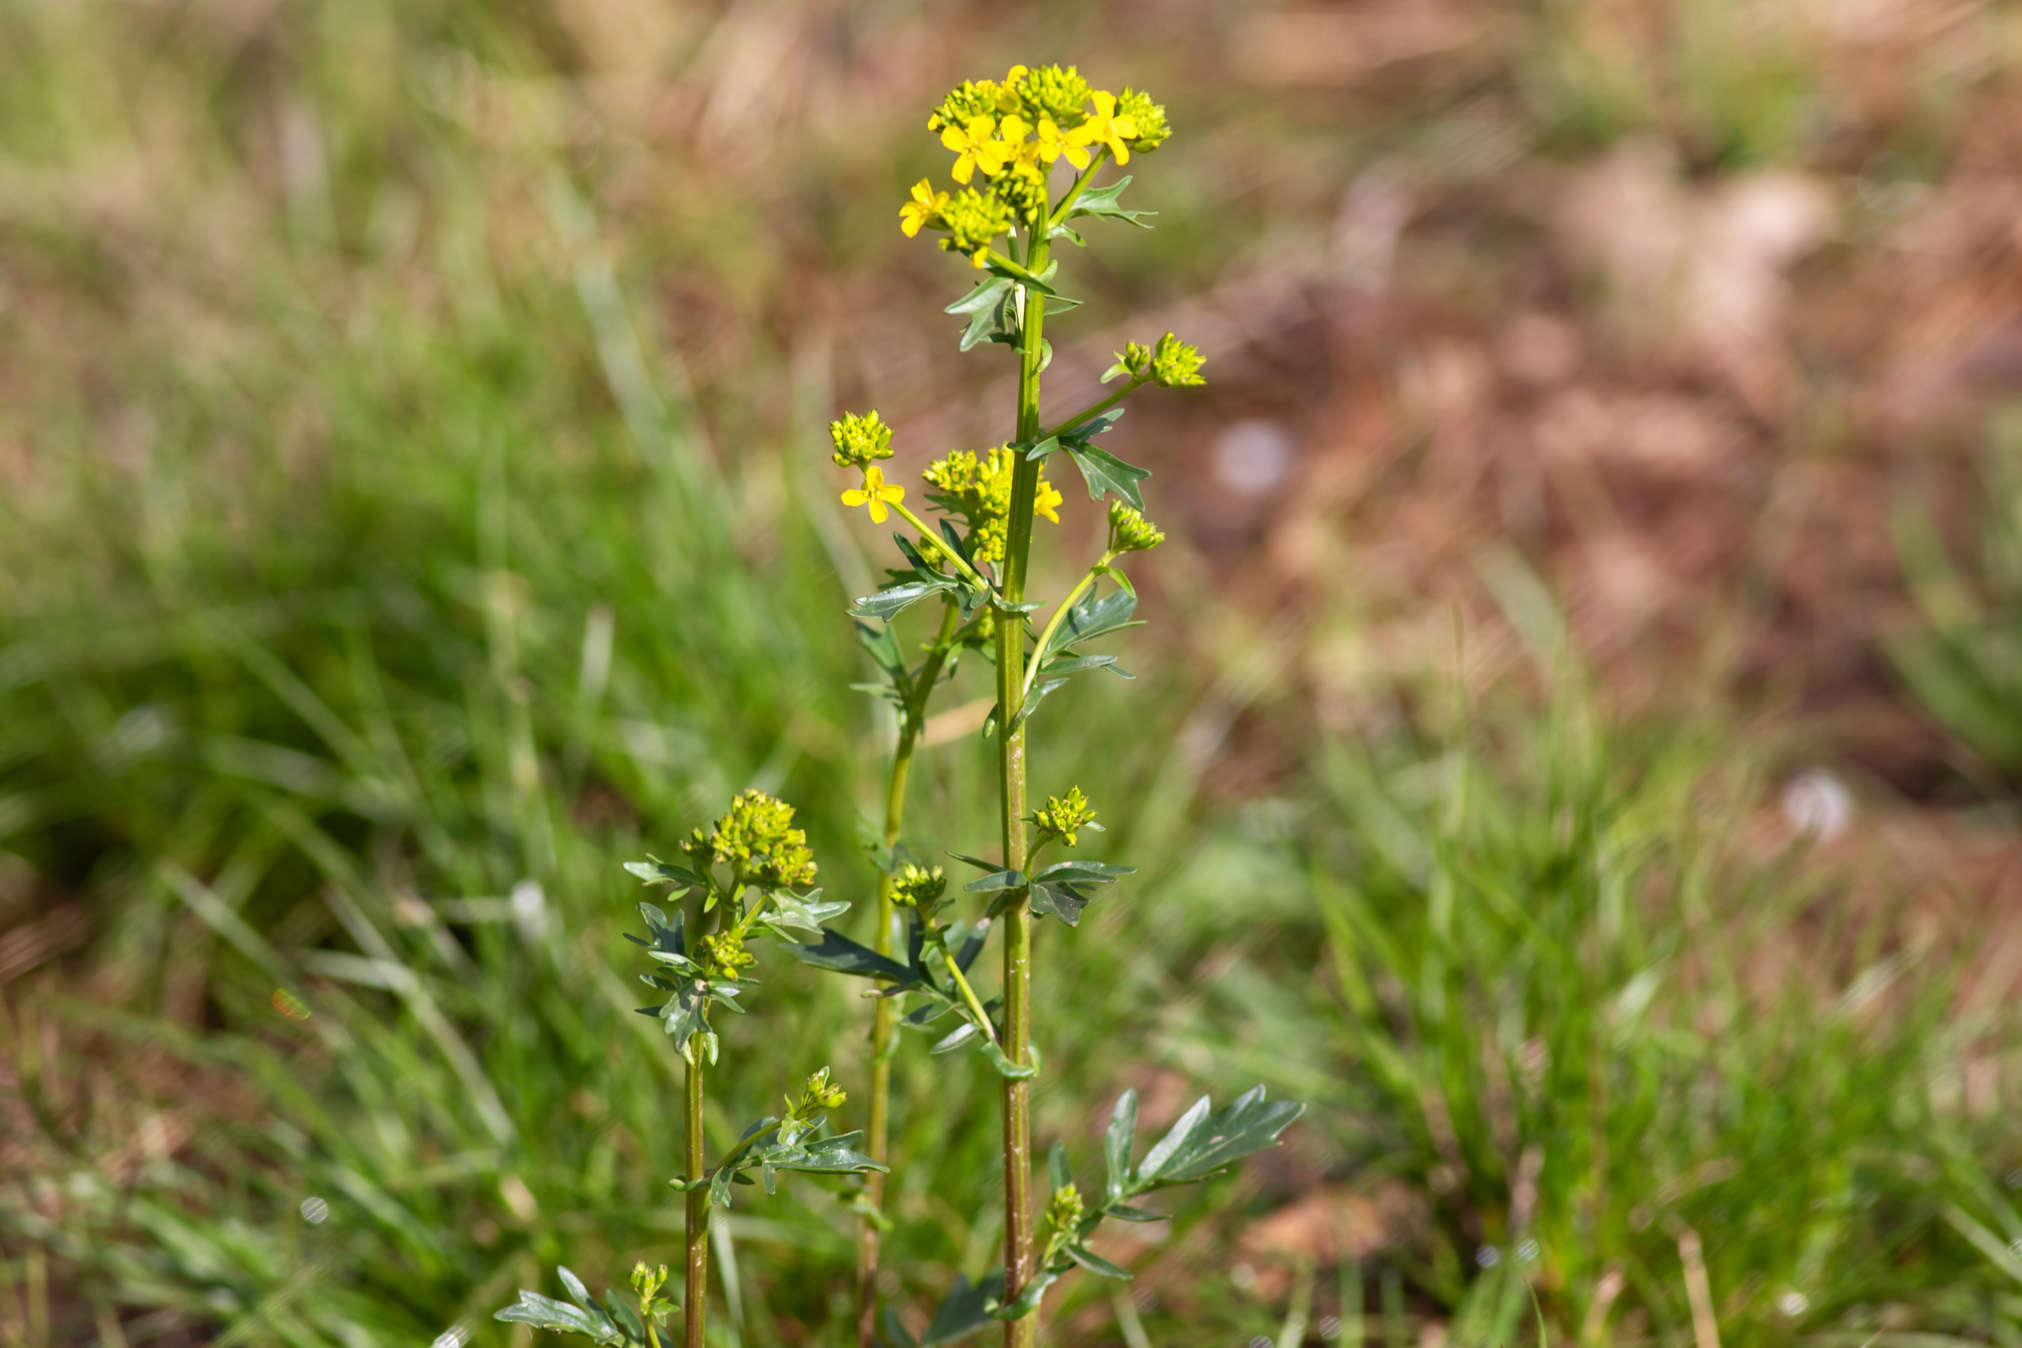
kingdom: Plantae
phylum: Tracheophyta
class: Magnoliopsida
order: Brassicales
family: Brassicaceae
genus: Barbarea
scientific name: Barbarea vulgaris
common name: Cressy-greens
